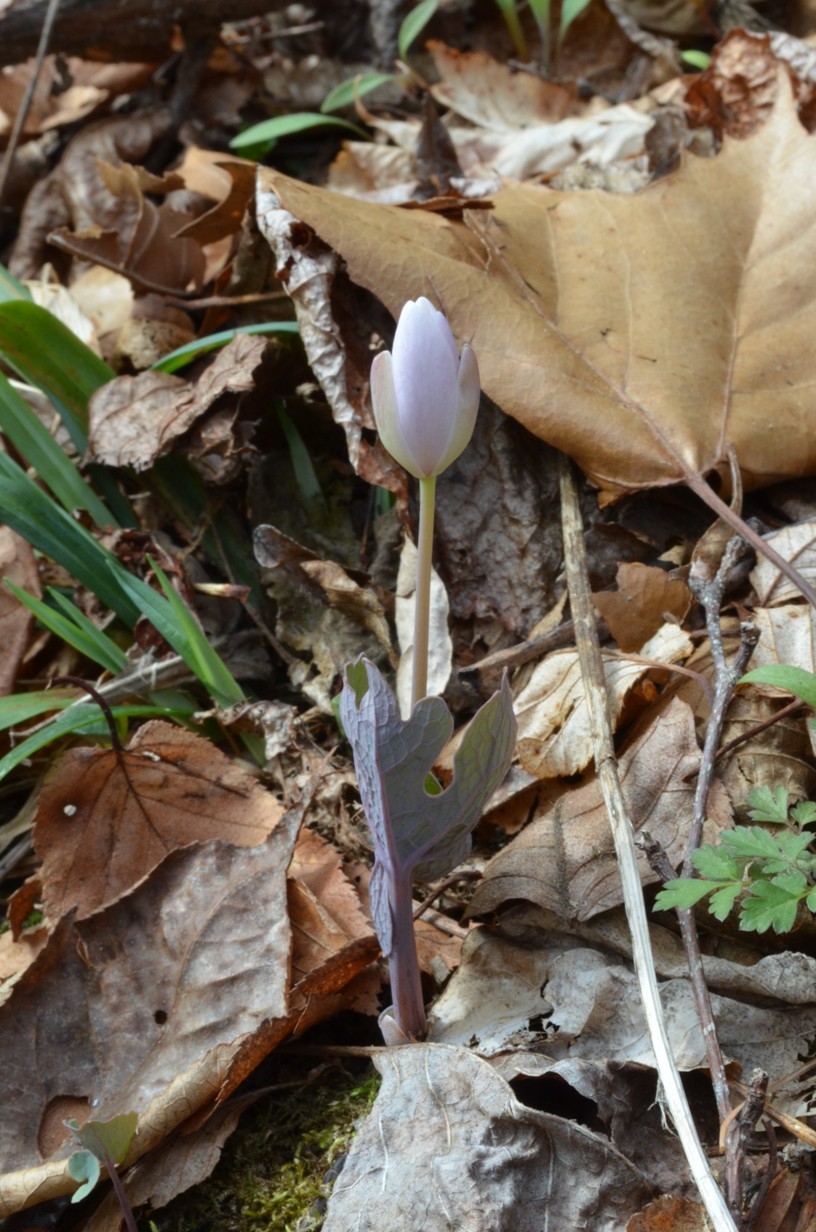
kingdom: Plantae
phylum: Tracheophyta
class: Magnoliopsida
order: Ranunculales
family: Papaveraceae
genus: Sanguinaria
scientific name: Sanguinaria canadensis
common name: Bloodroot
